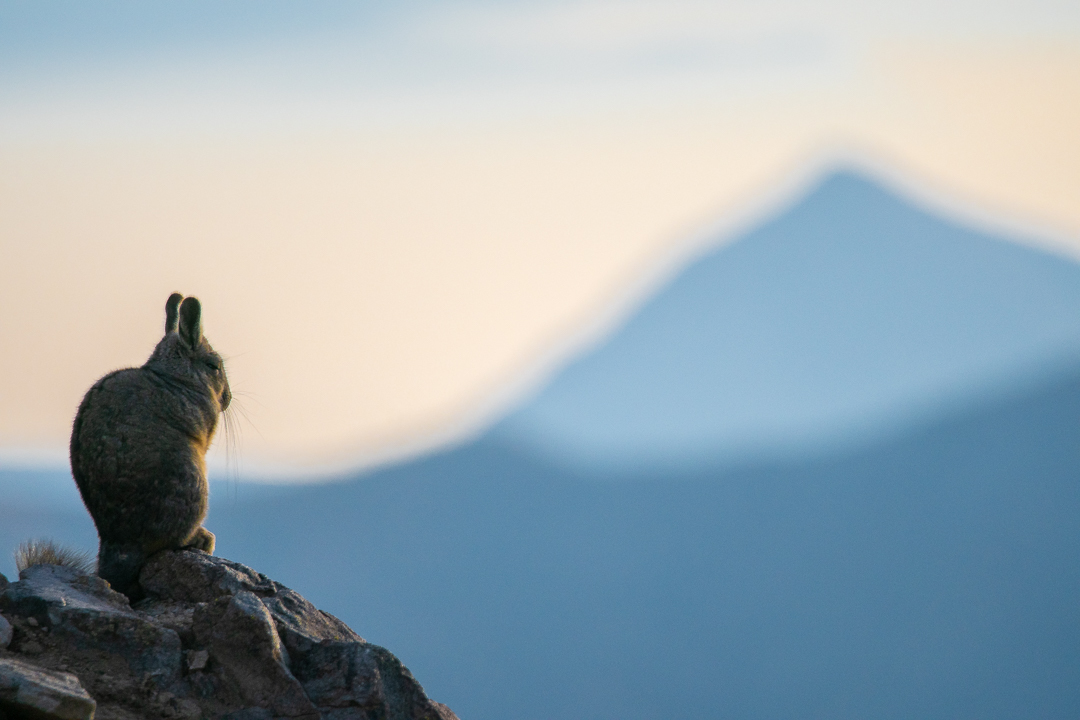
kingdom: Animalia
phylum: Chordata
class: Mammalia
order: Rodentia
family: Chinchillidae
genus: Lagidium
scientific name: Lagidium viscacia
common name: Southern viscacha
